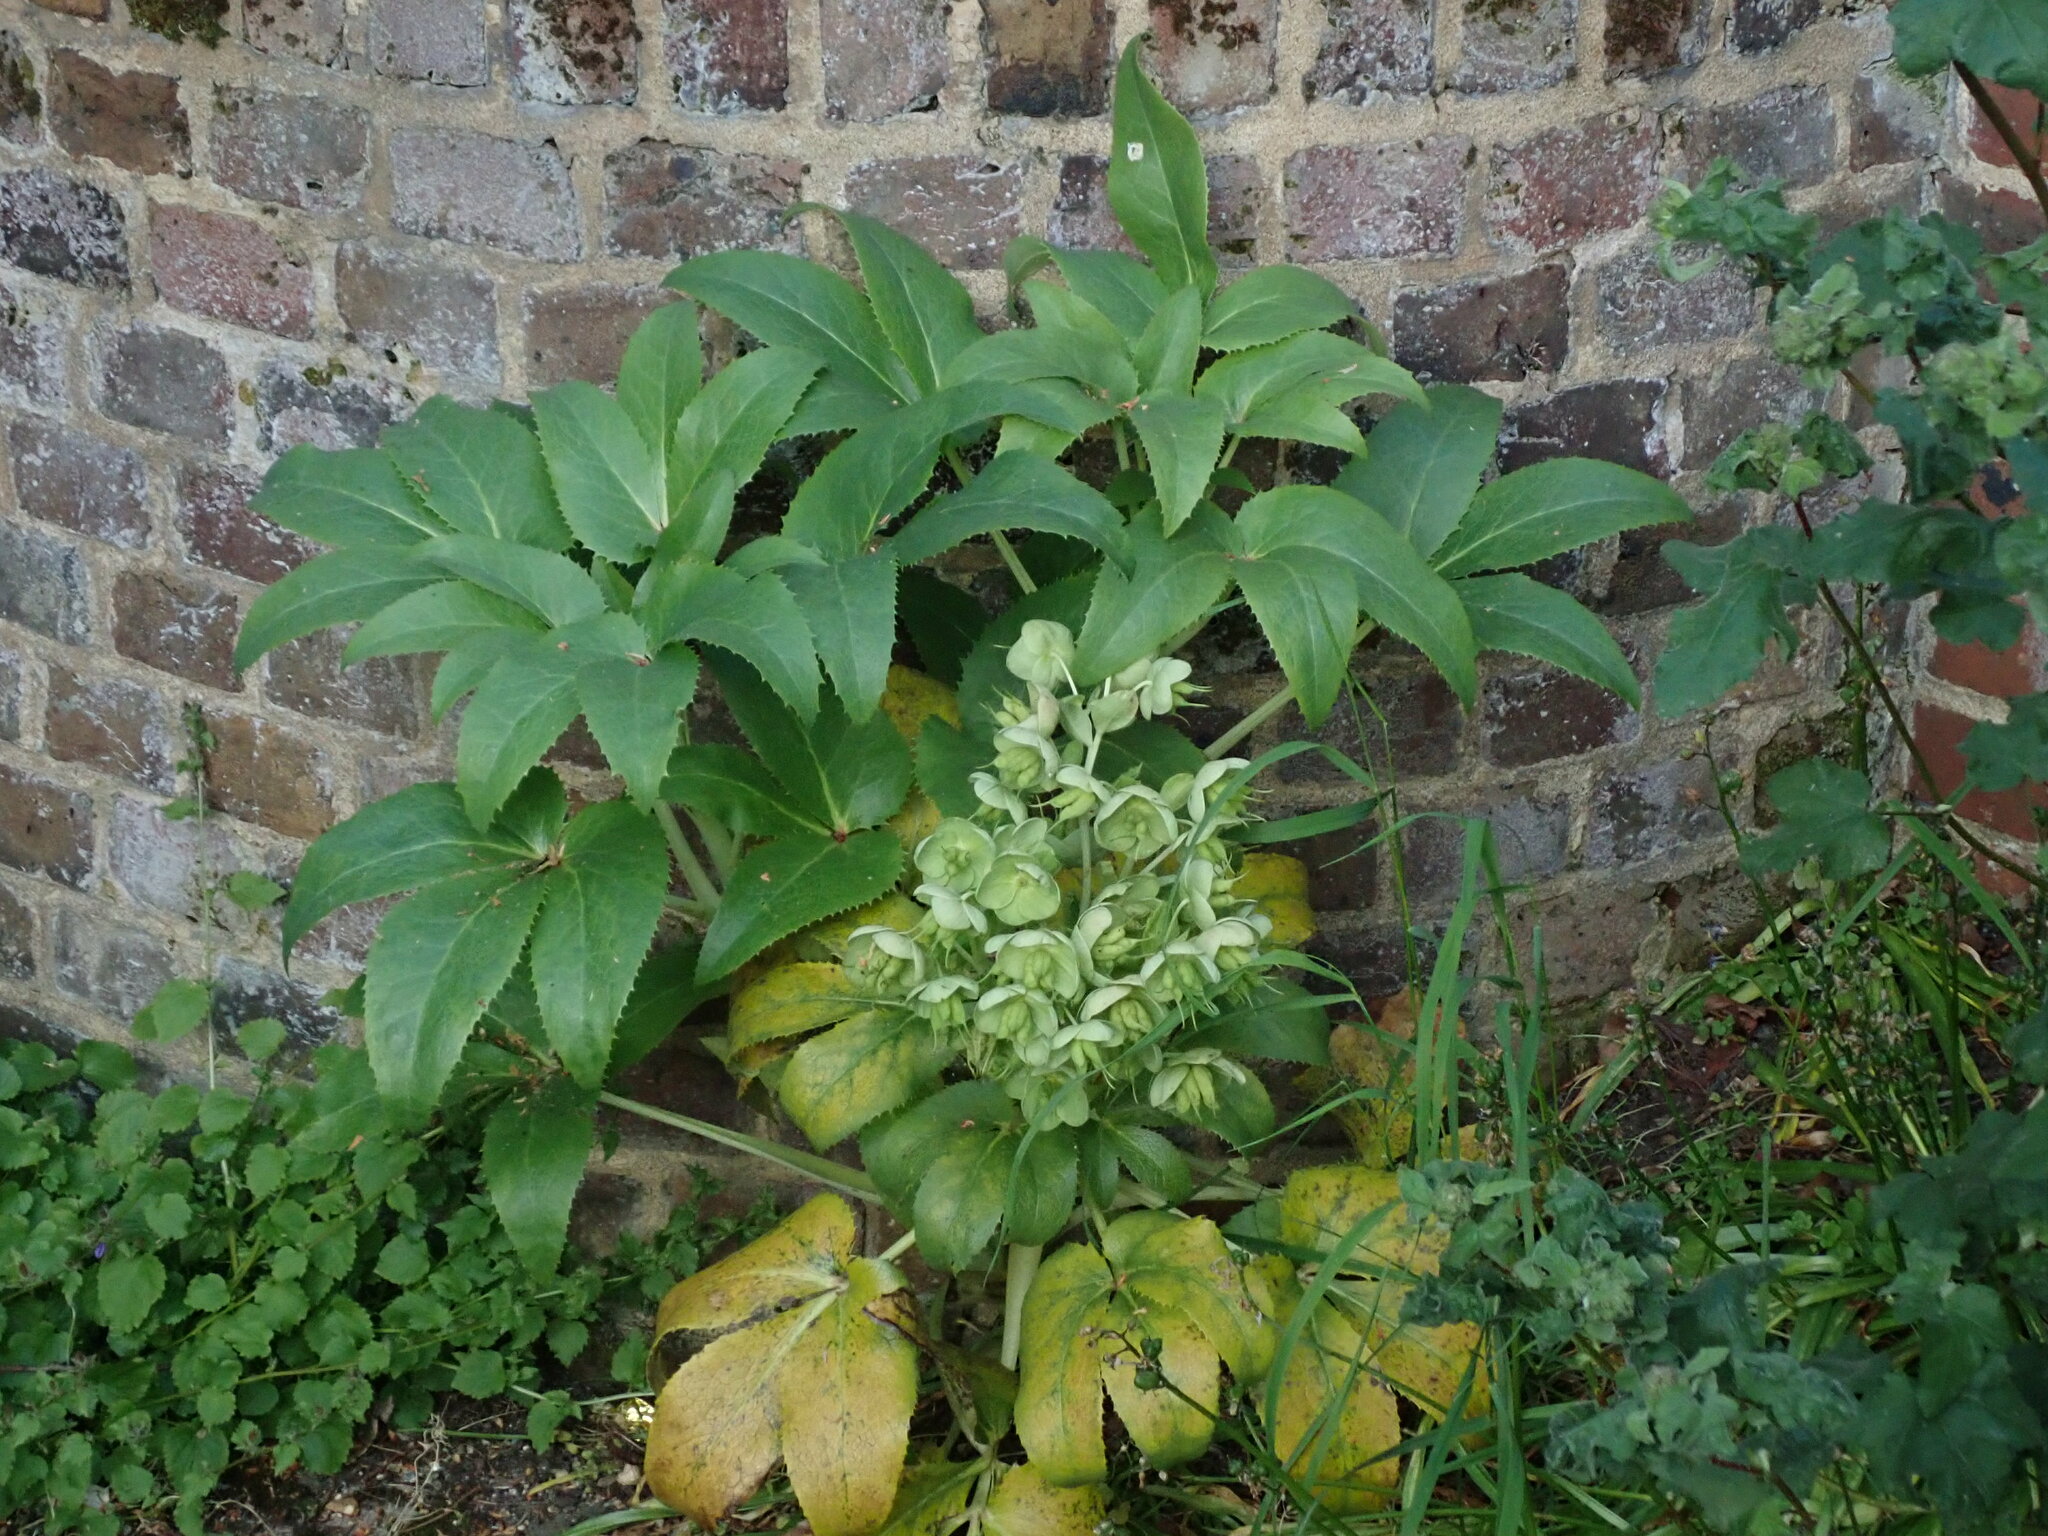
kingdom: Plantae
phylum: Tracheophyta
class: Magnoliopsida
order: Ranunculales
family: Ranunculaceae
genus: Helleborus
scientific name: Helleborus argutifolius
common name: Corsican hellebore
